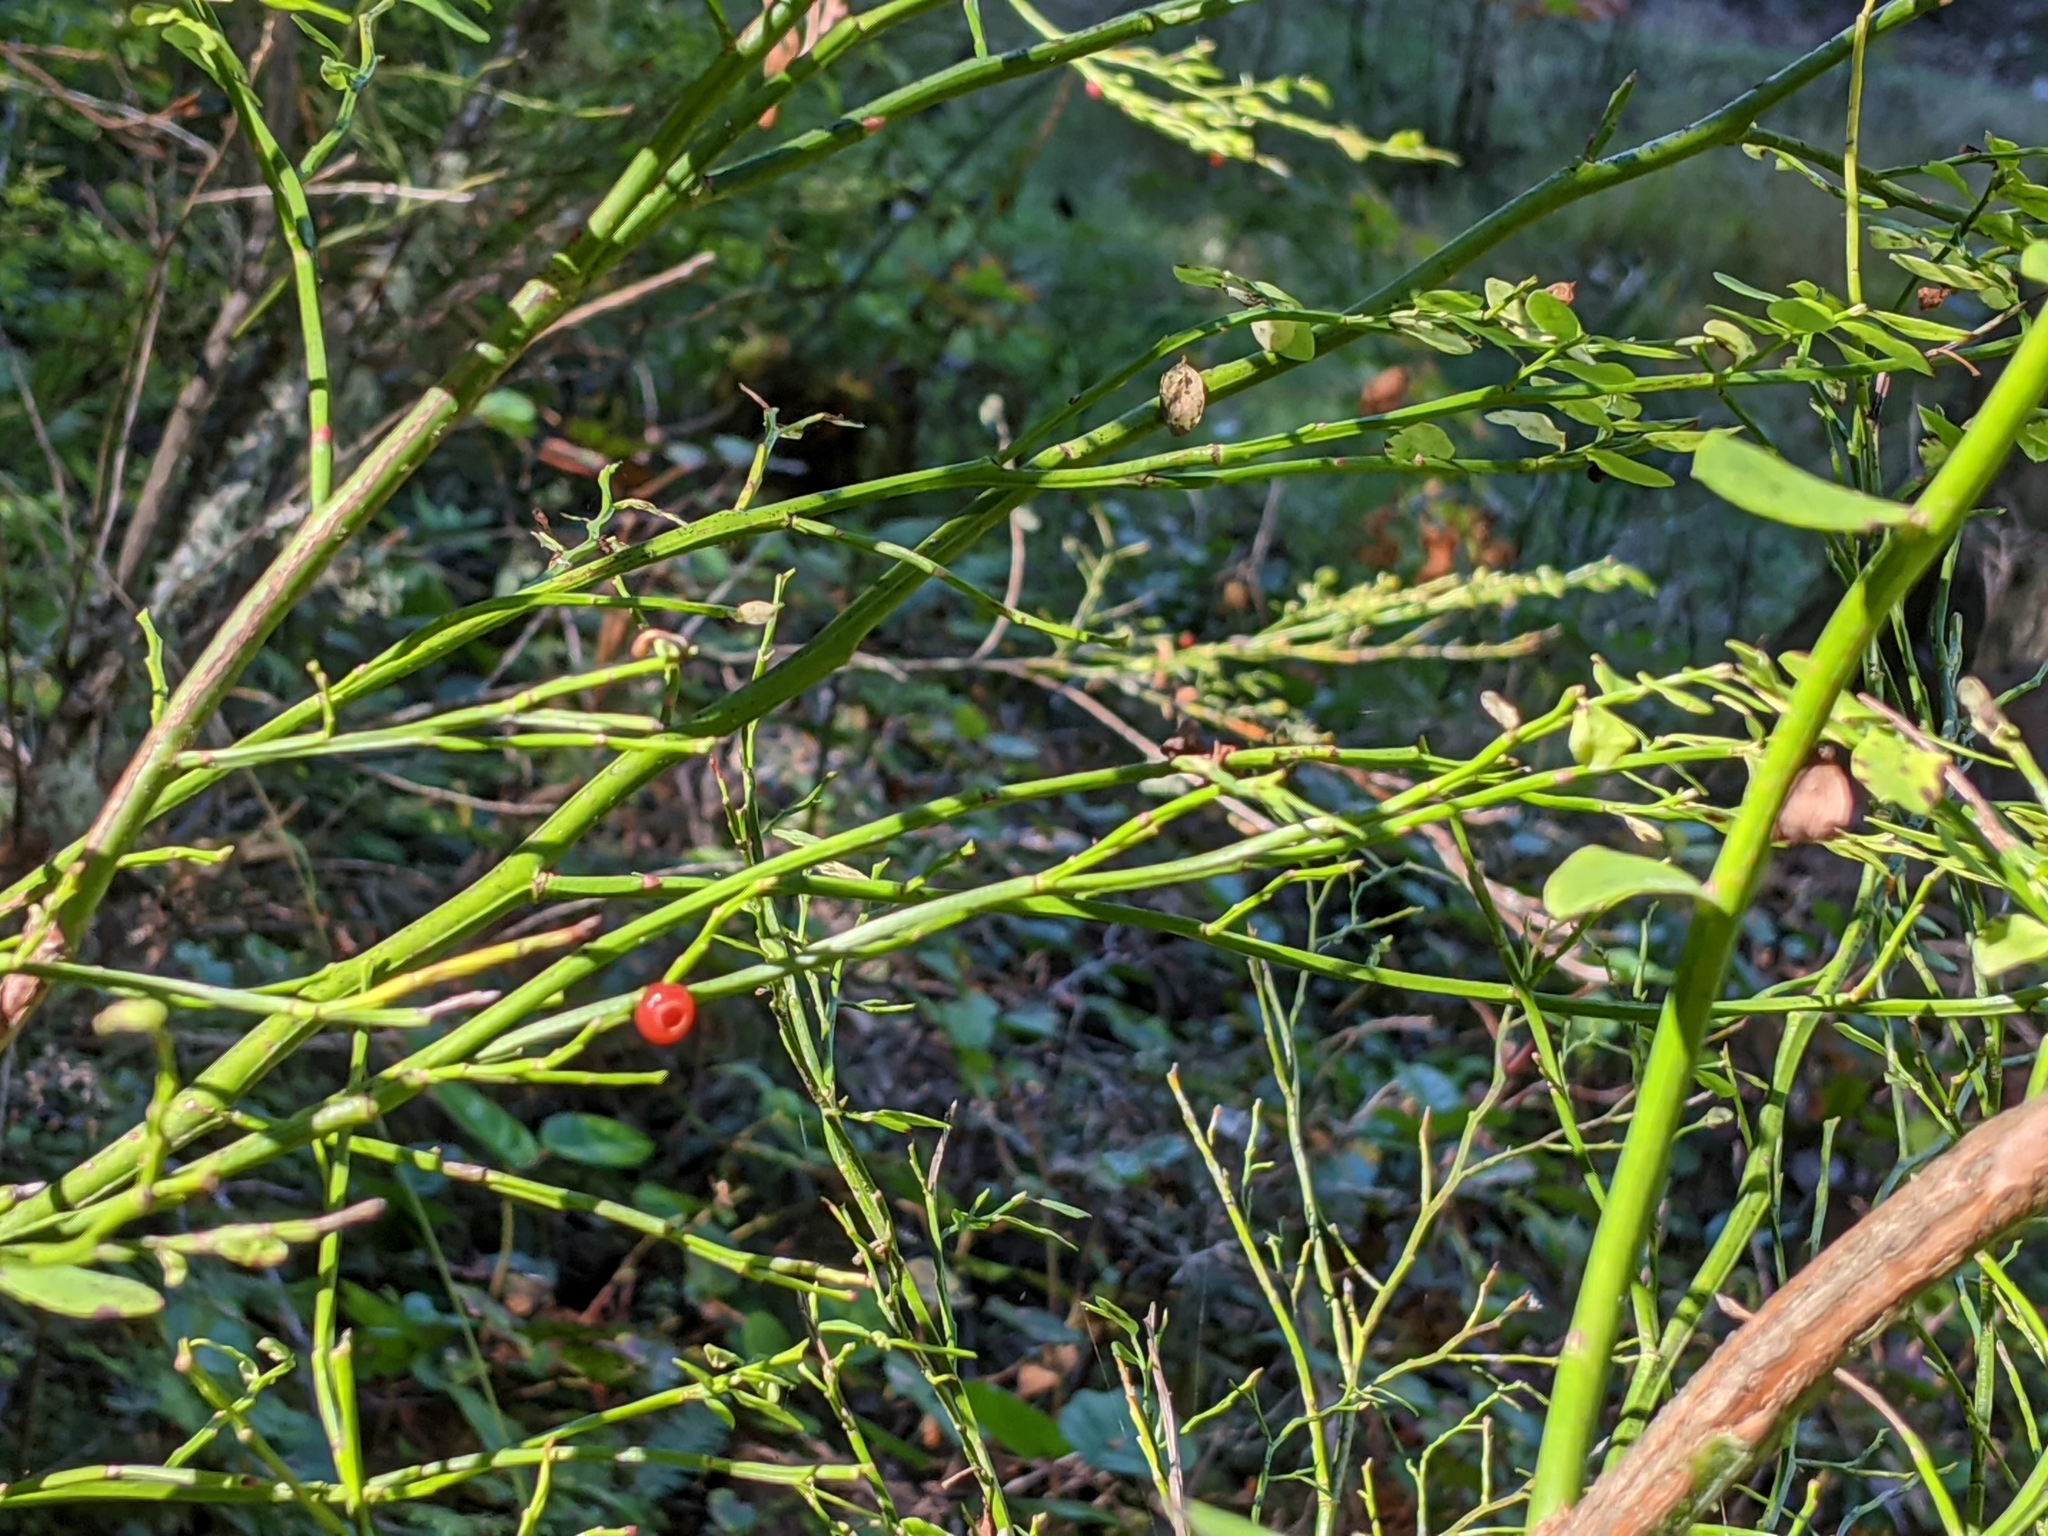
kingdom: Plantae
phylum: Tracheophyta
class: Magnoliopsida
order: Ericales
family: Ericaceae
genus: Vaccinium
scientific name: Vaccinium parvifolium
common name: Red-huckleberry
